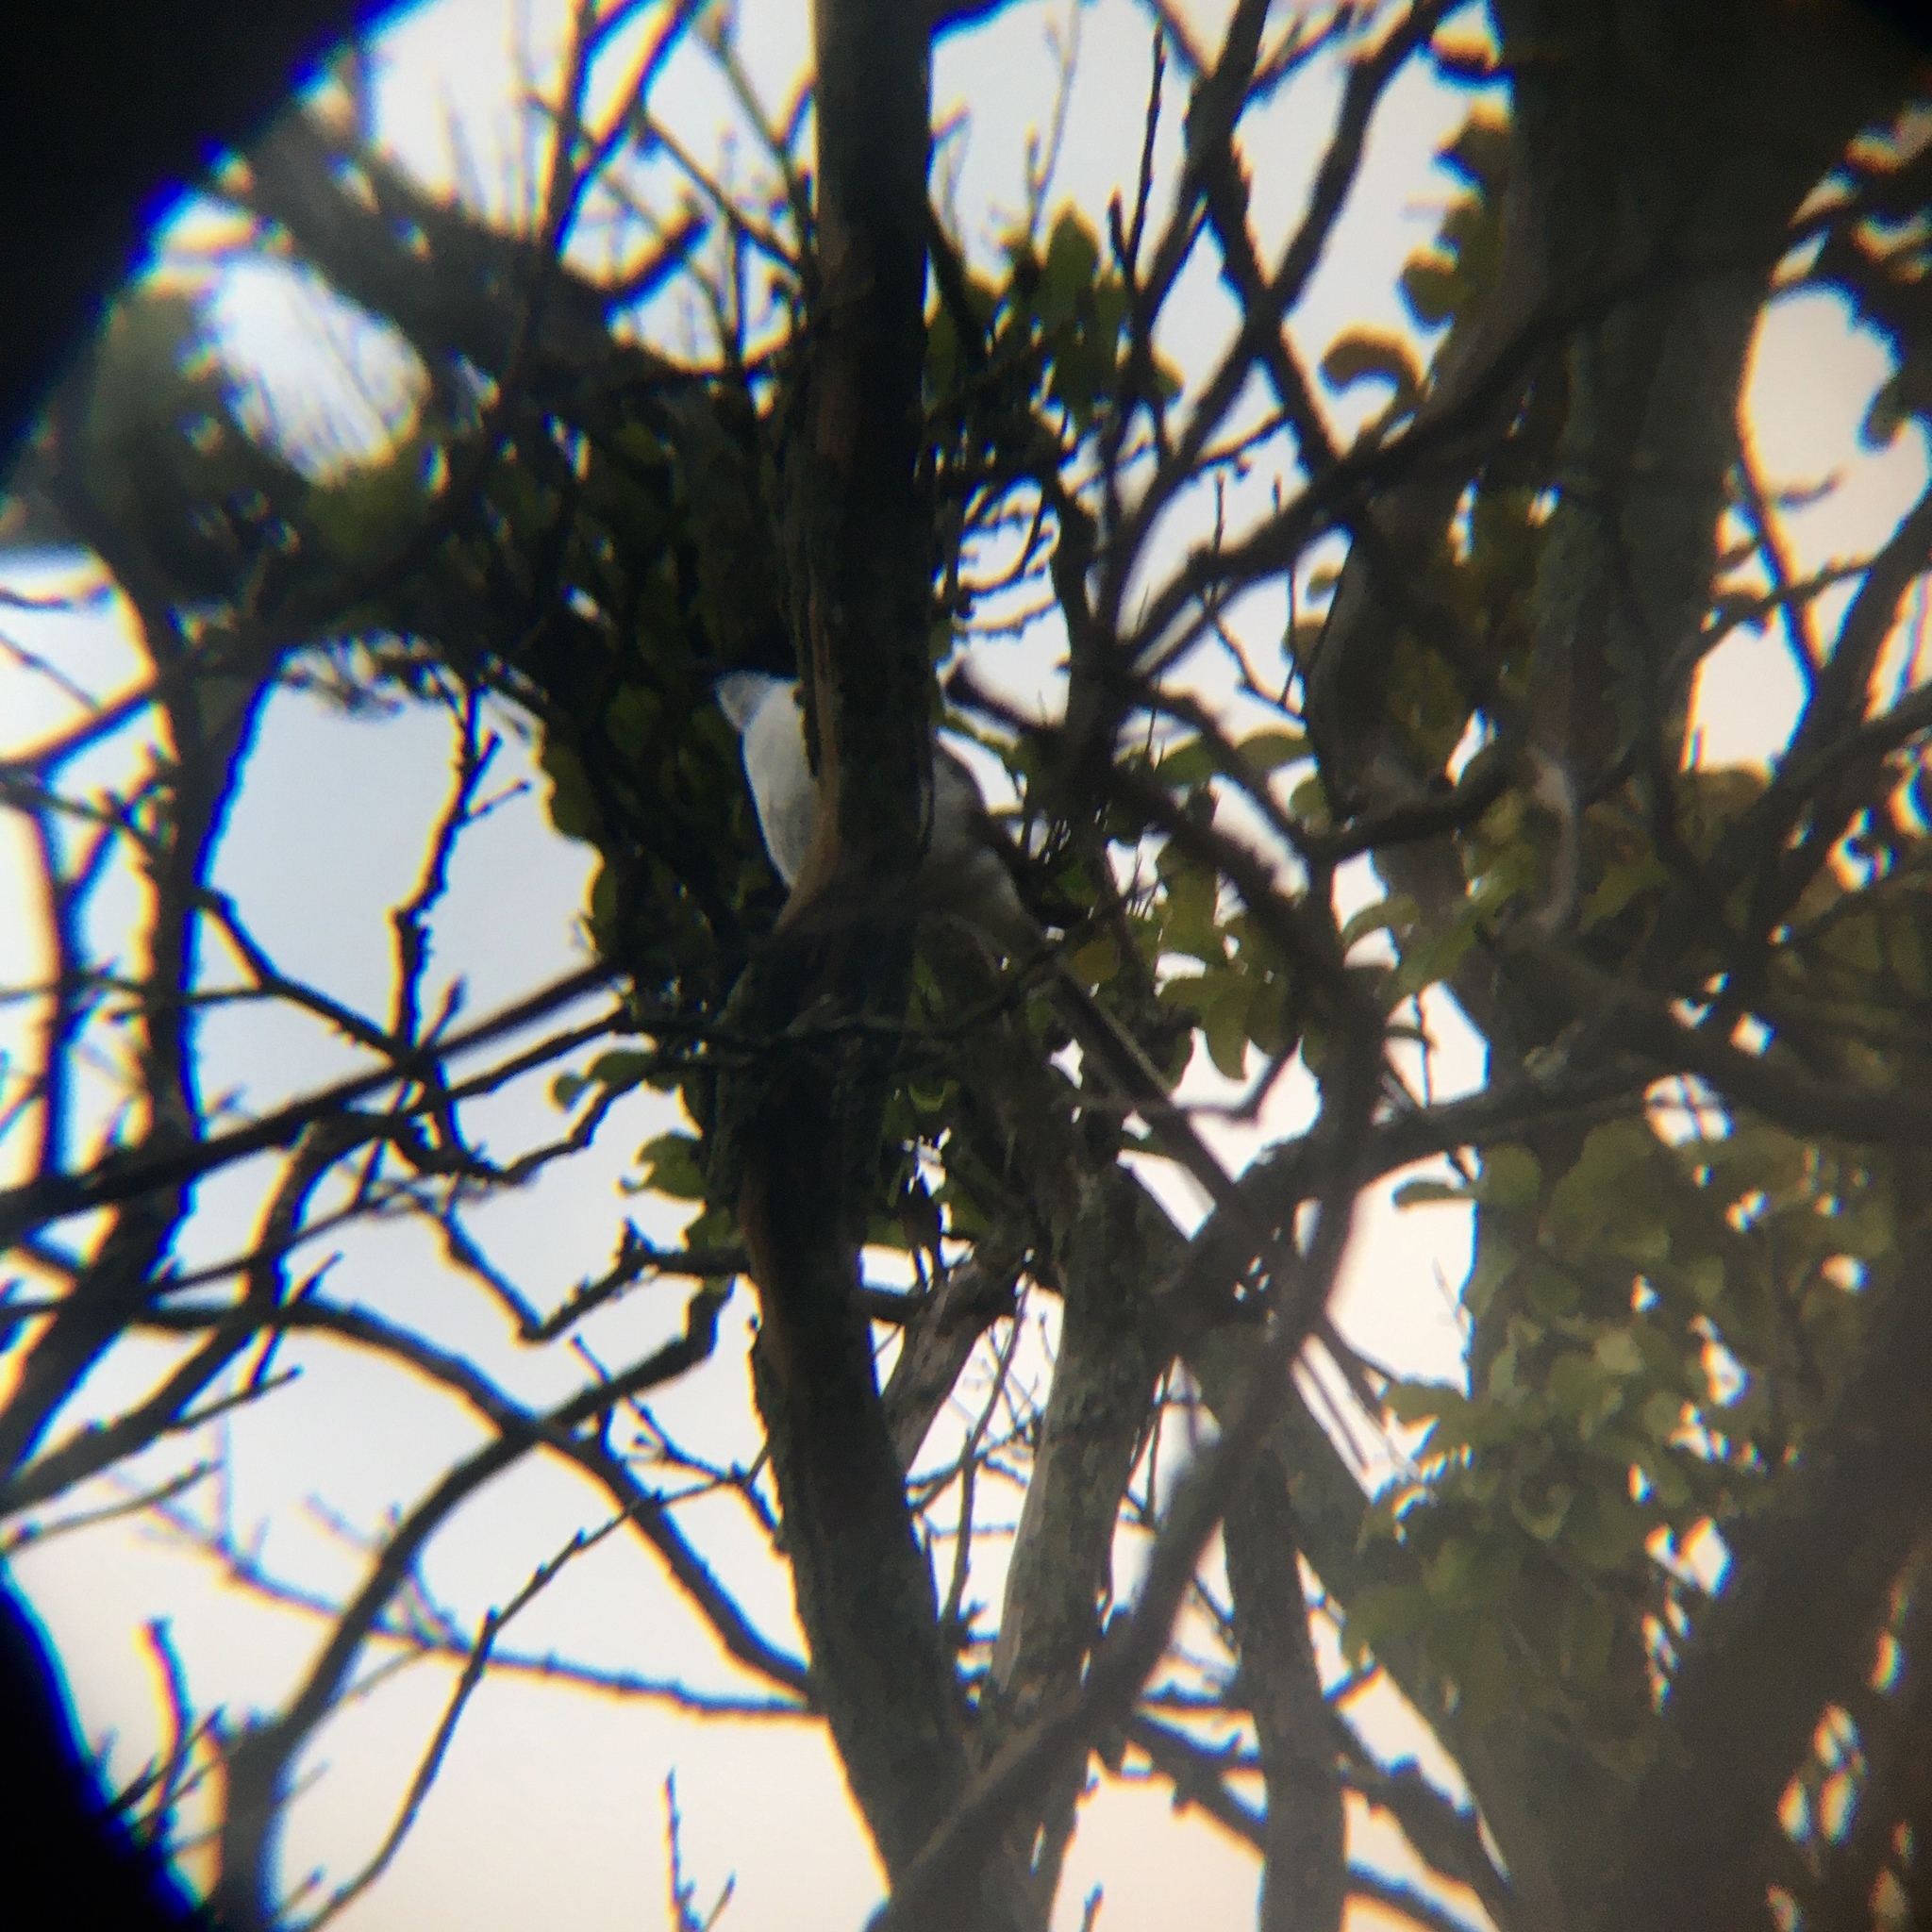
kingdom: Animalia
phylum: Chordata
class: Aves
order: Passeriformes
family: Tyrannidae
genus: Tyrannus
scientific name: Tyrannus savana
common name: Fork-tailed flycatcher
